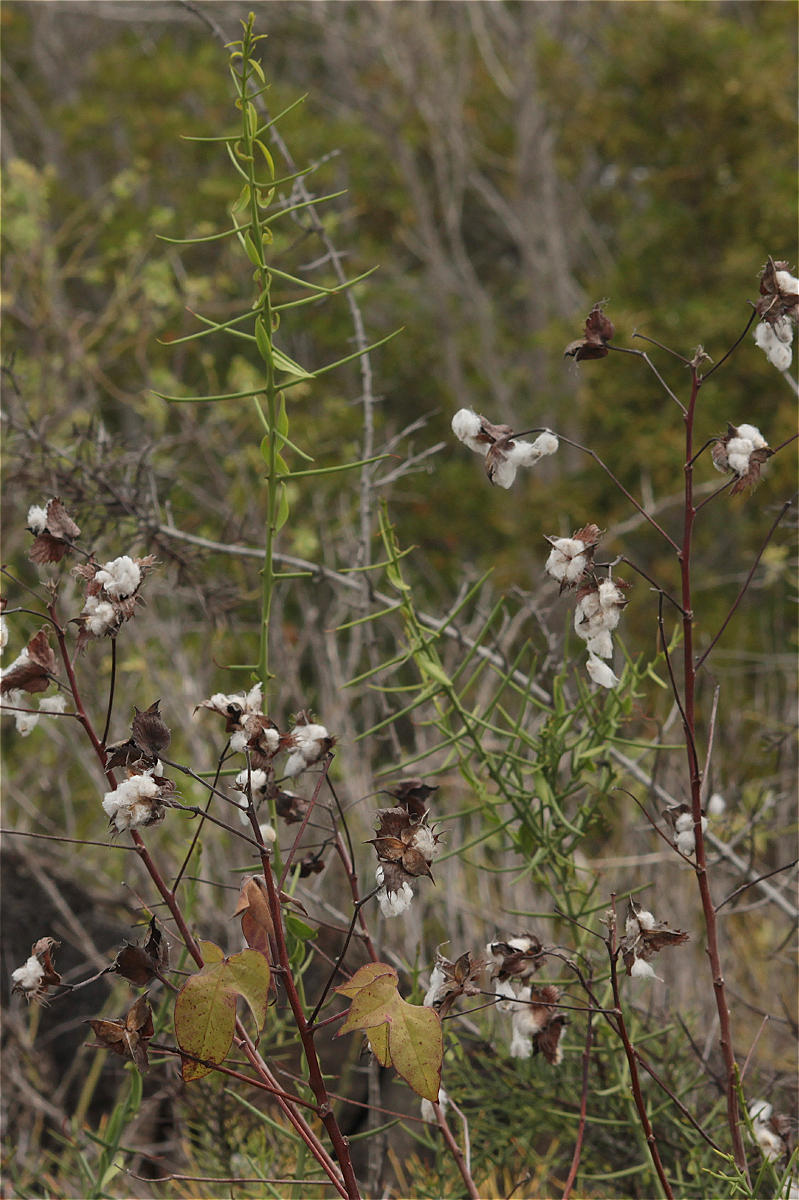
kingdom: Plantae
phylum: Tracheophyta
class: Magnoliopsida
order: Rosales
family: Rhamnaceae
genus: Scutia
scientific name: Scutia spicata
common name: Spiny bush
